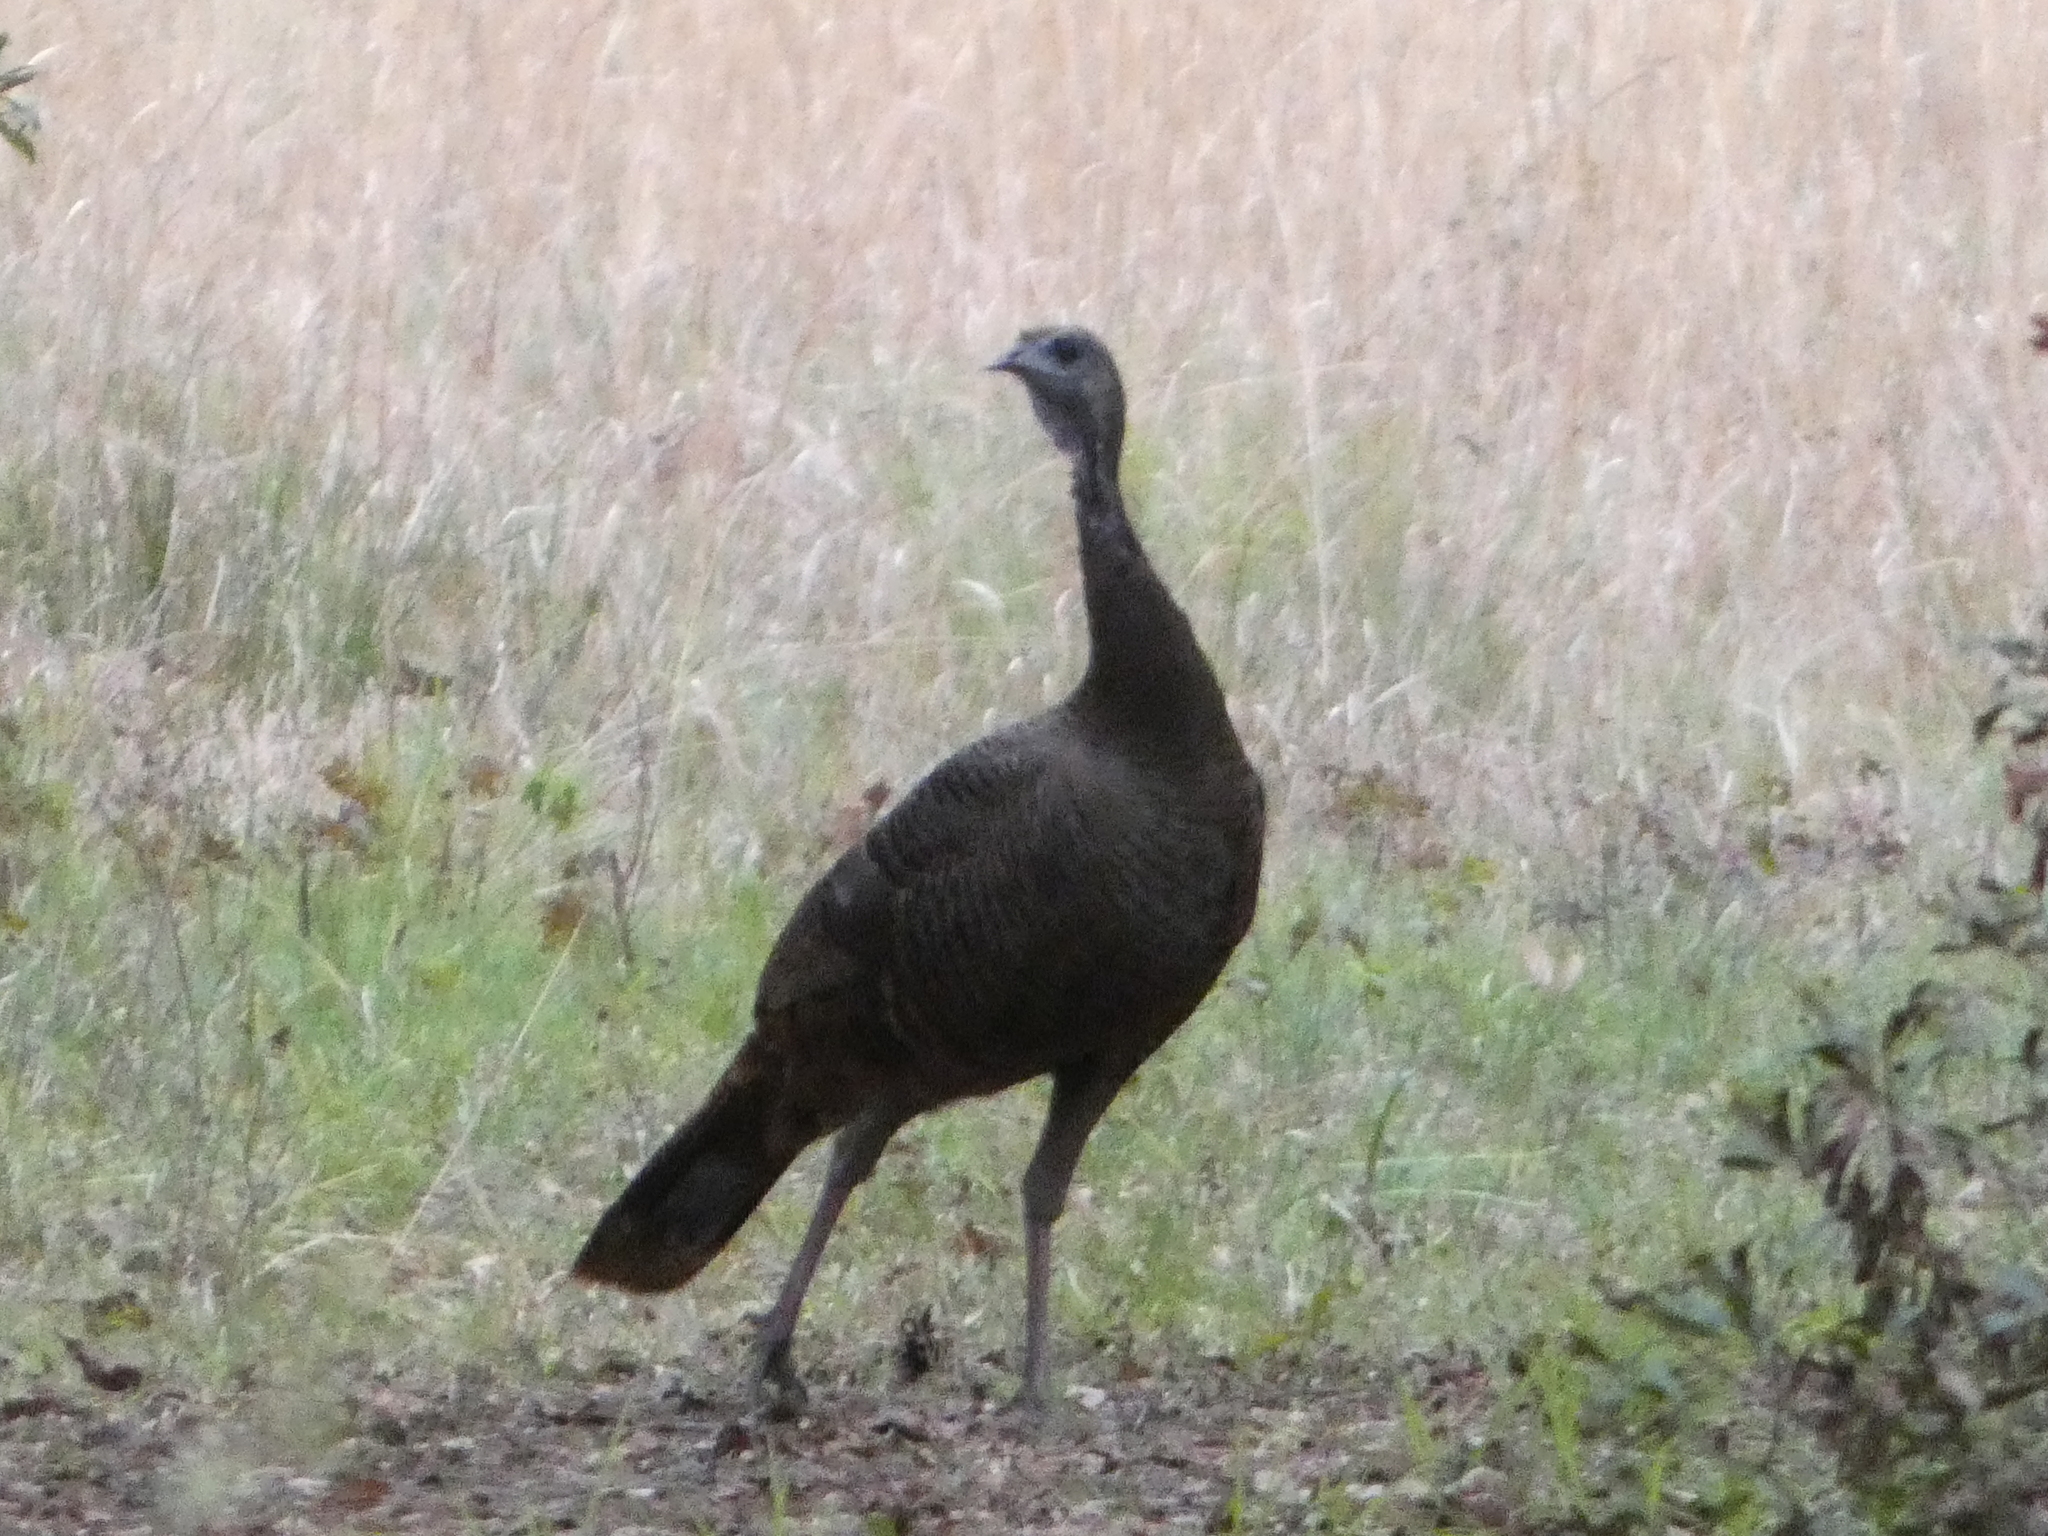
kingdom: Animalia
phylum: Chordata
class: Aves
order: Galliformes
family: Phasianidae
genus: Meleagris
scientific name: Meleagris gallopavo
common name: Wild turkey
